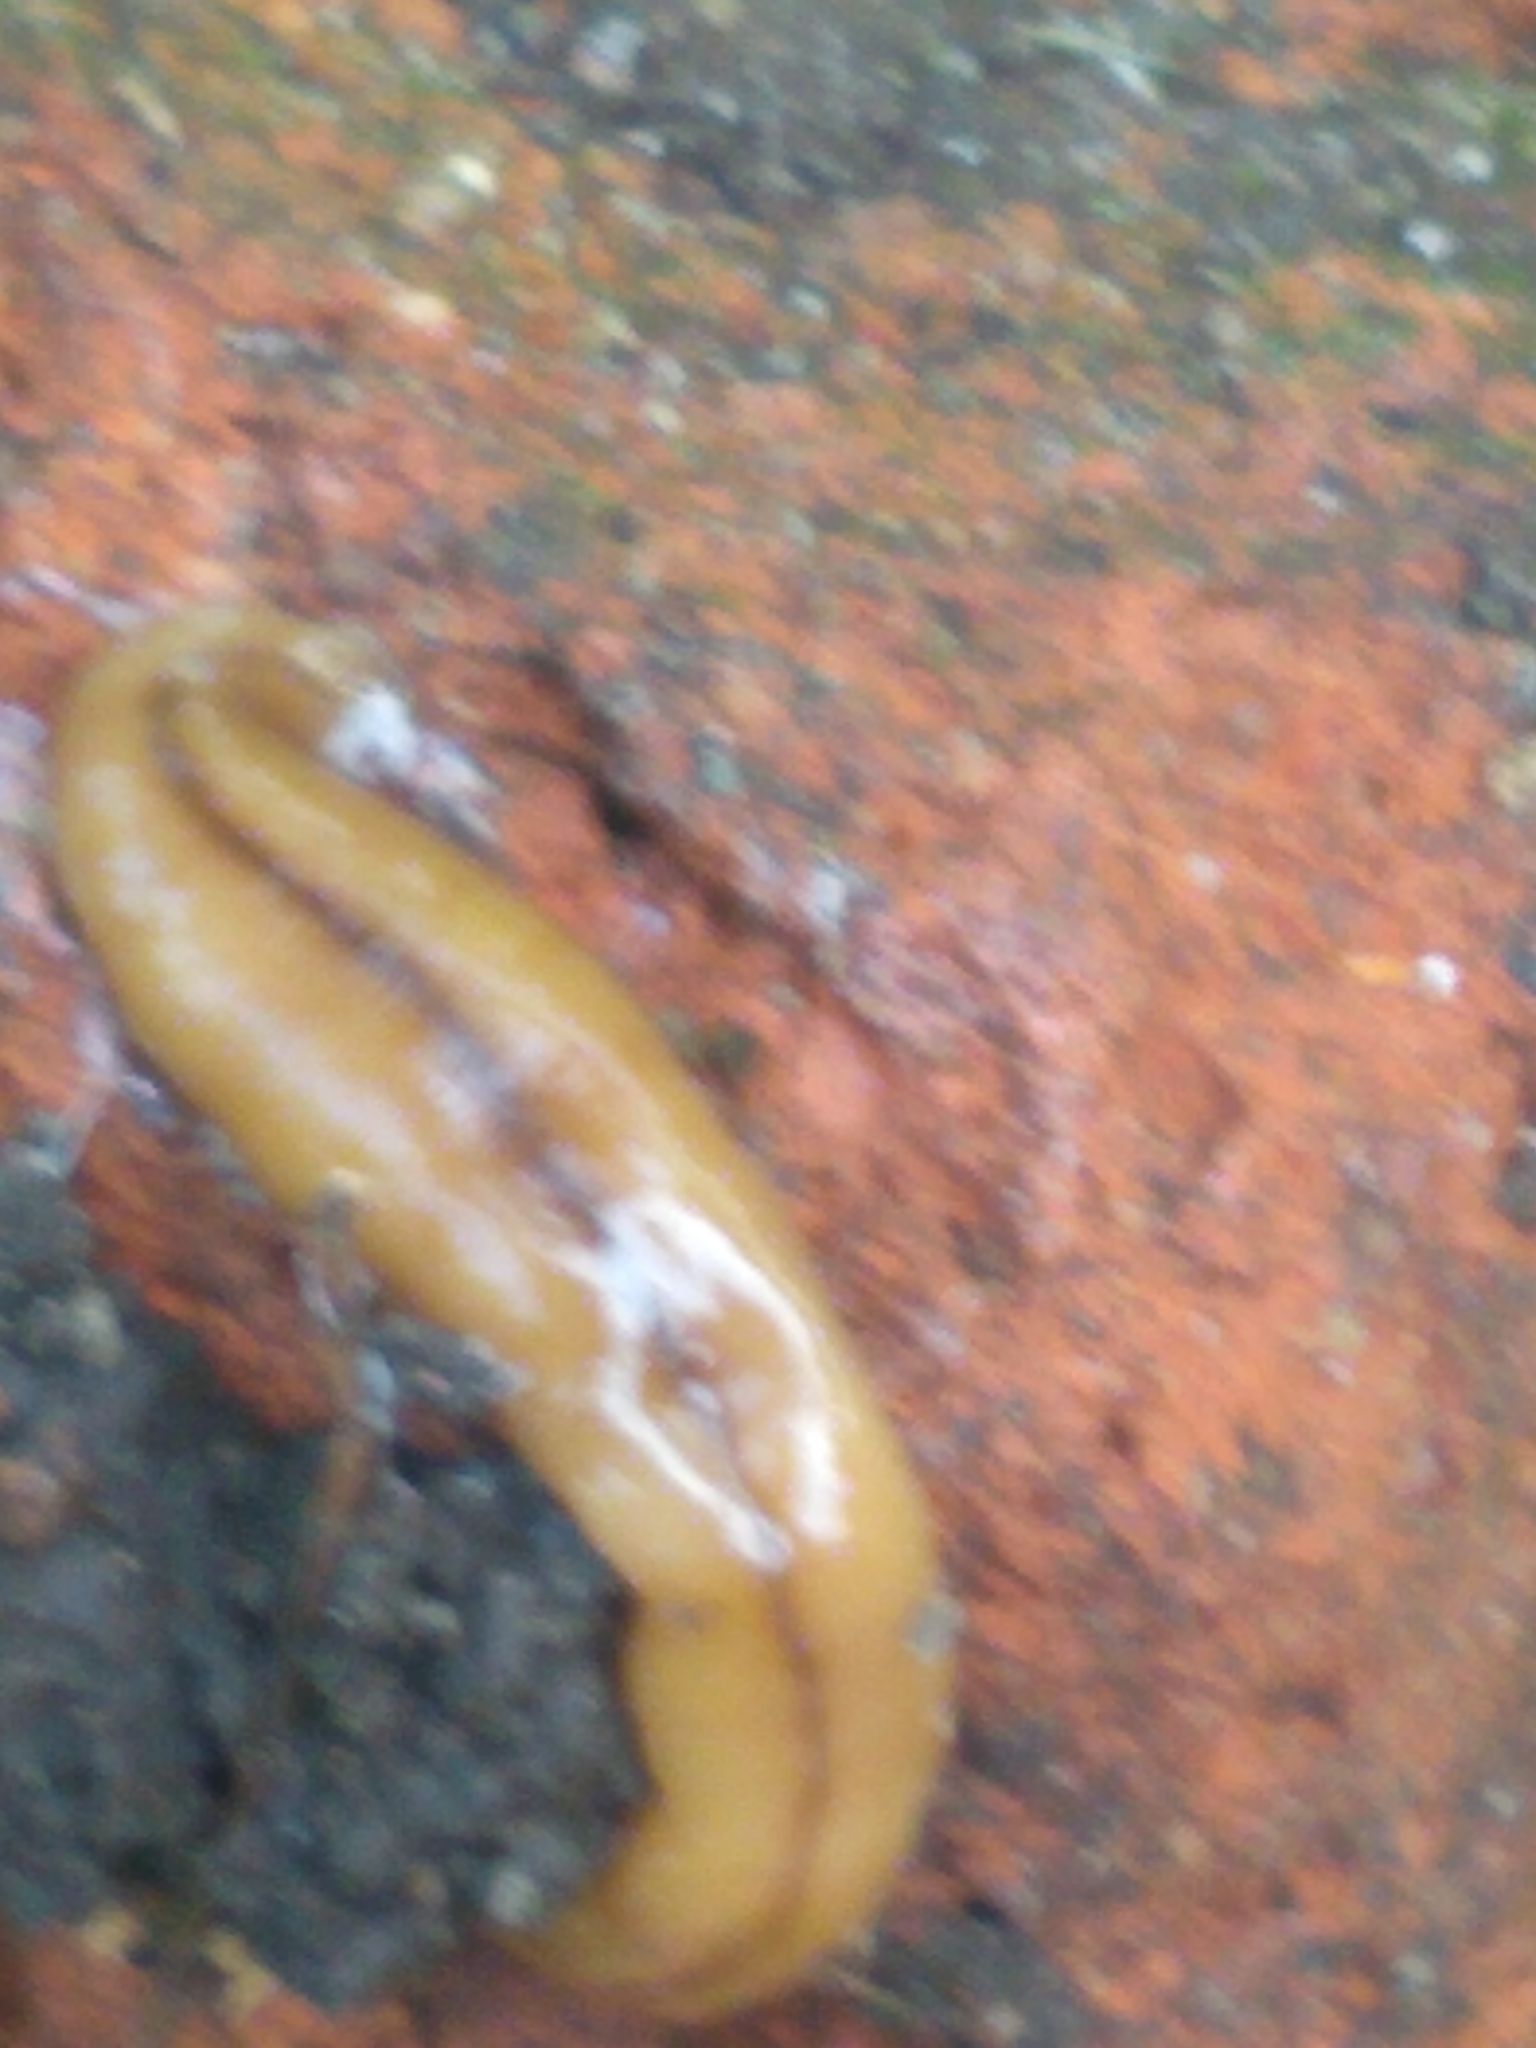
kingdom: Animalia
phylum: Platyhelminthes
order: Tricladida
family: Geoplanidae
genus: Bipalium
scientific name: Bipalium adventitium
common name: Land planarian
